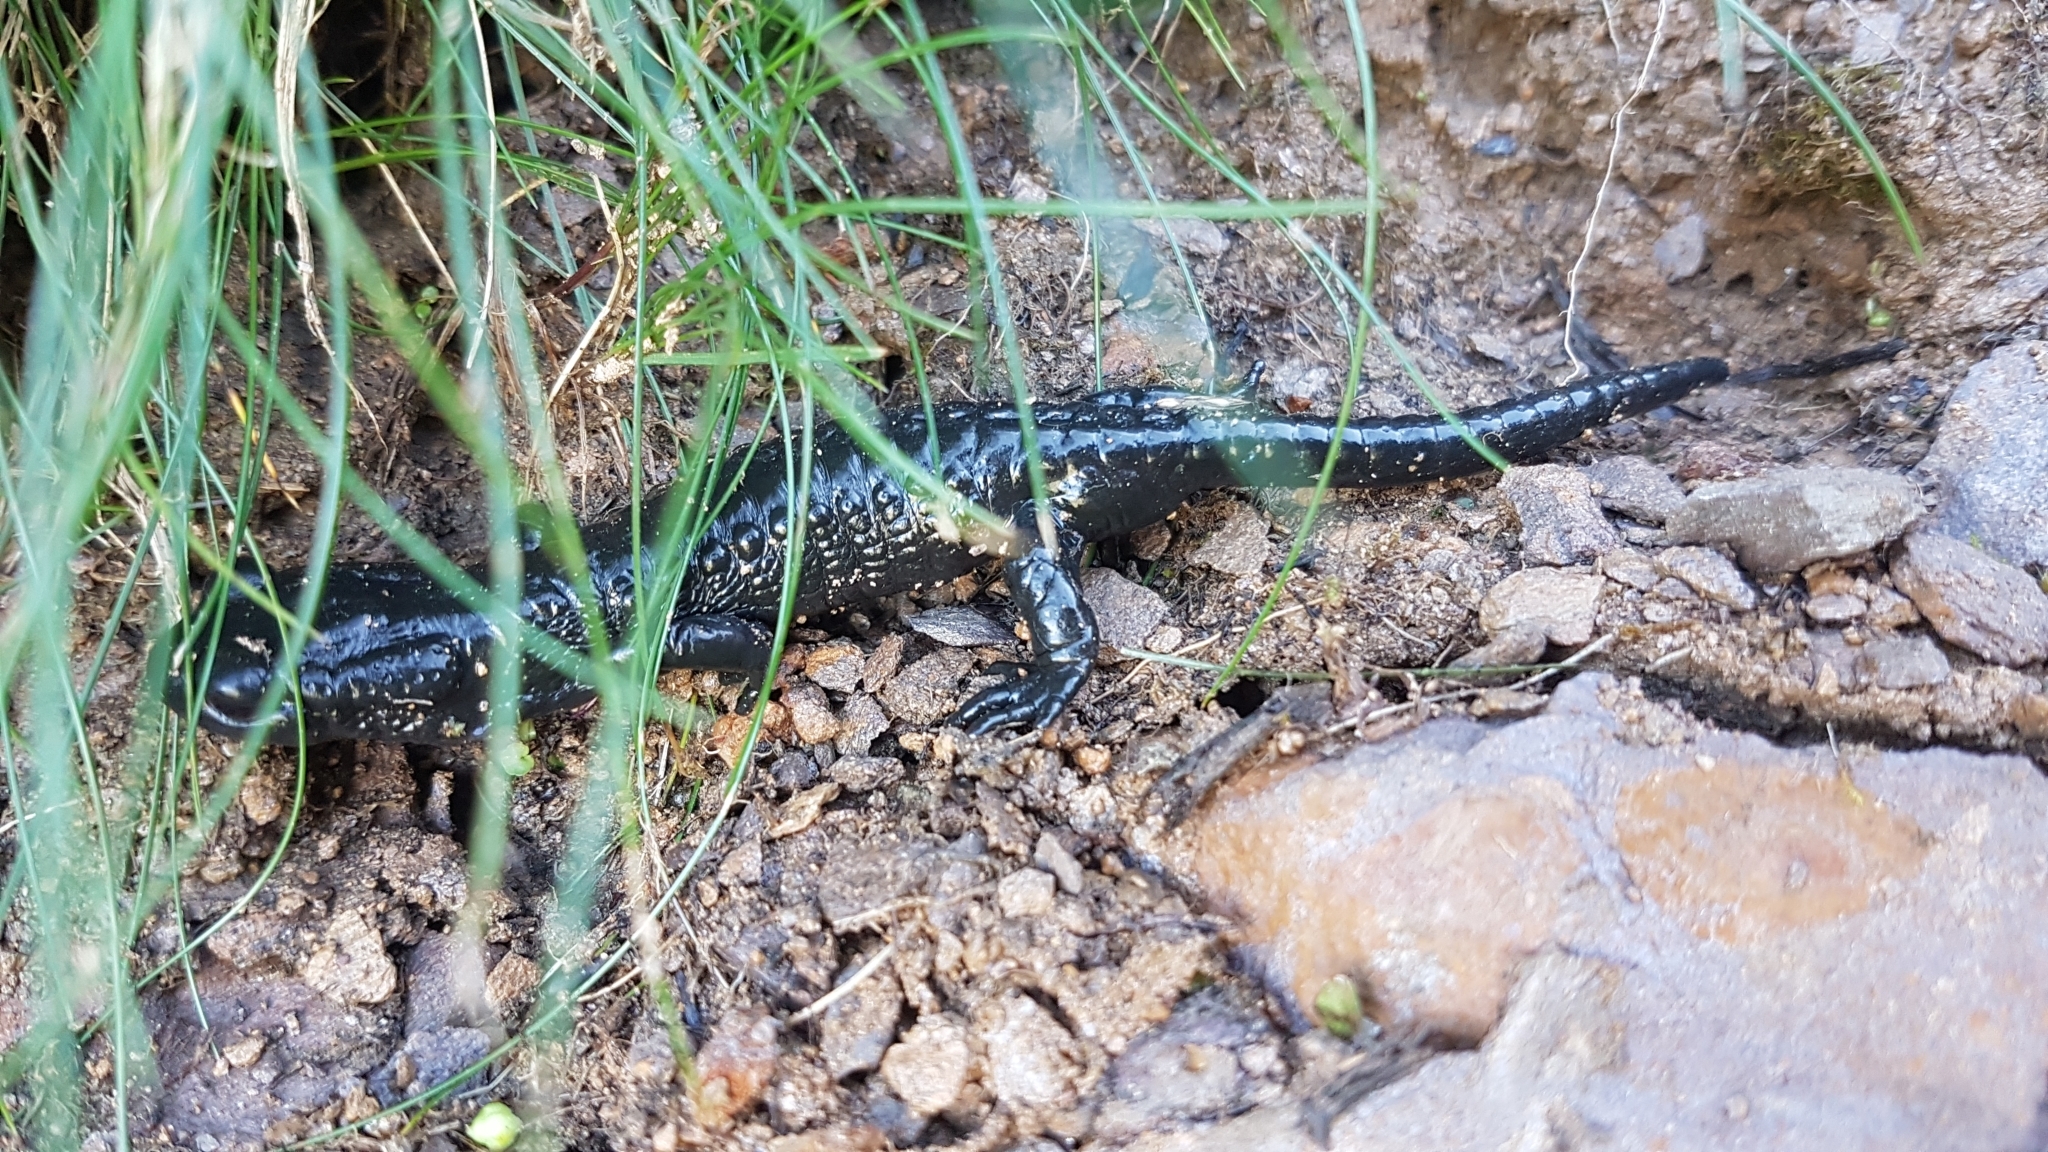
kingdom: Animalia
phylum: Chordata
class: Amphibia
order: Caudata
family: Salamandridae
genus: Salamandra
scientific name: Salamandra atra
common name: Alpine salamander
